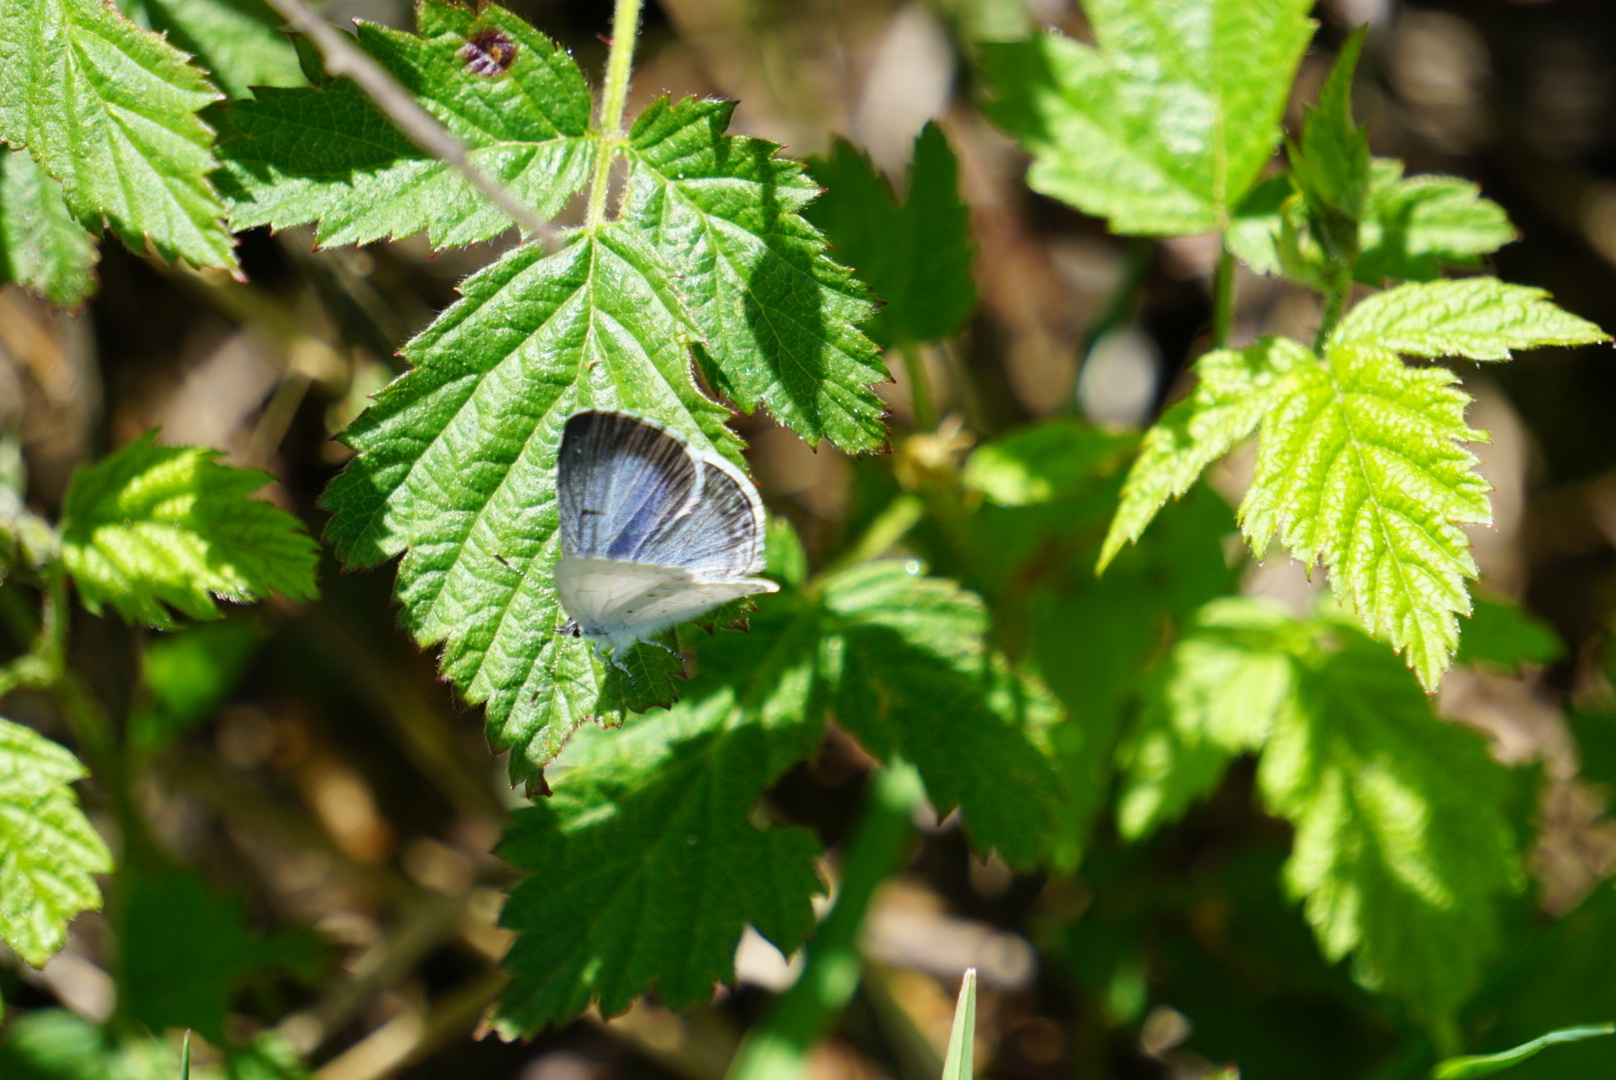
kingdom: Animalia
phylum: Arthropoda
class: Insecta
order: Lepidoptera
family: Lycaenidae
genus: Celastrina
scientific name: Celastrina ladon
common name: Spring azure
